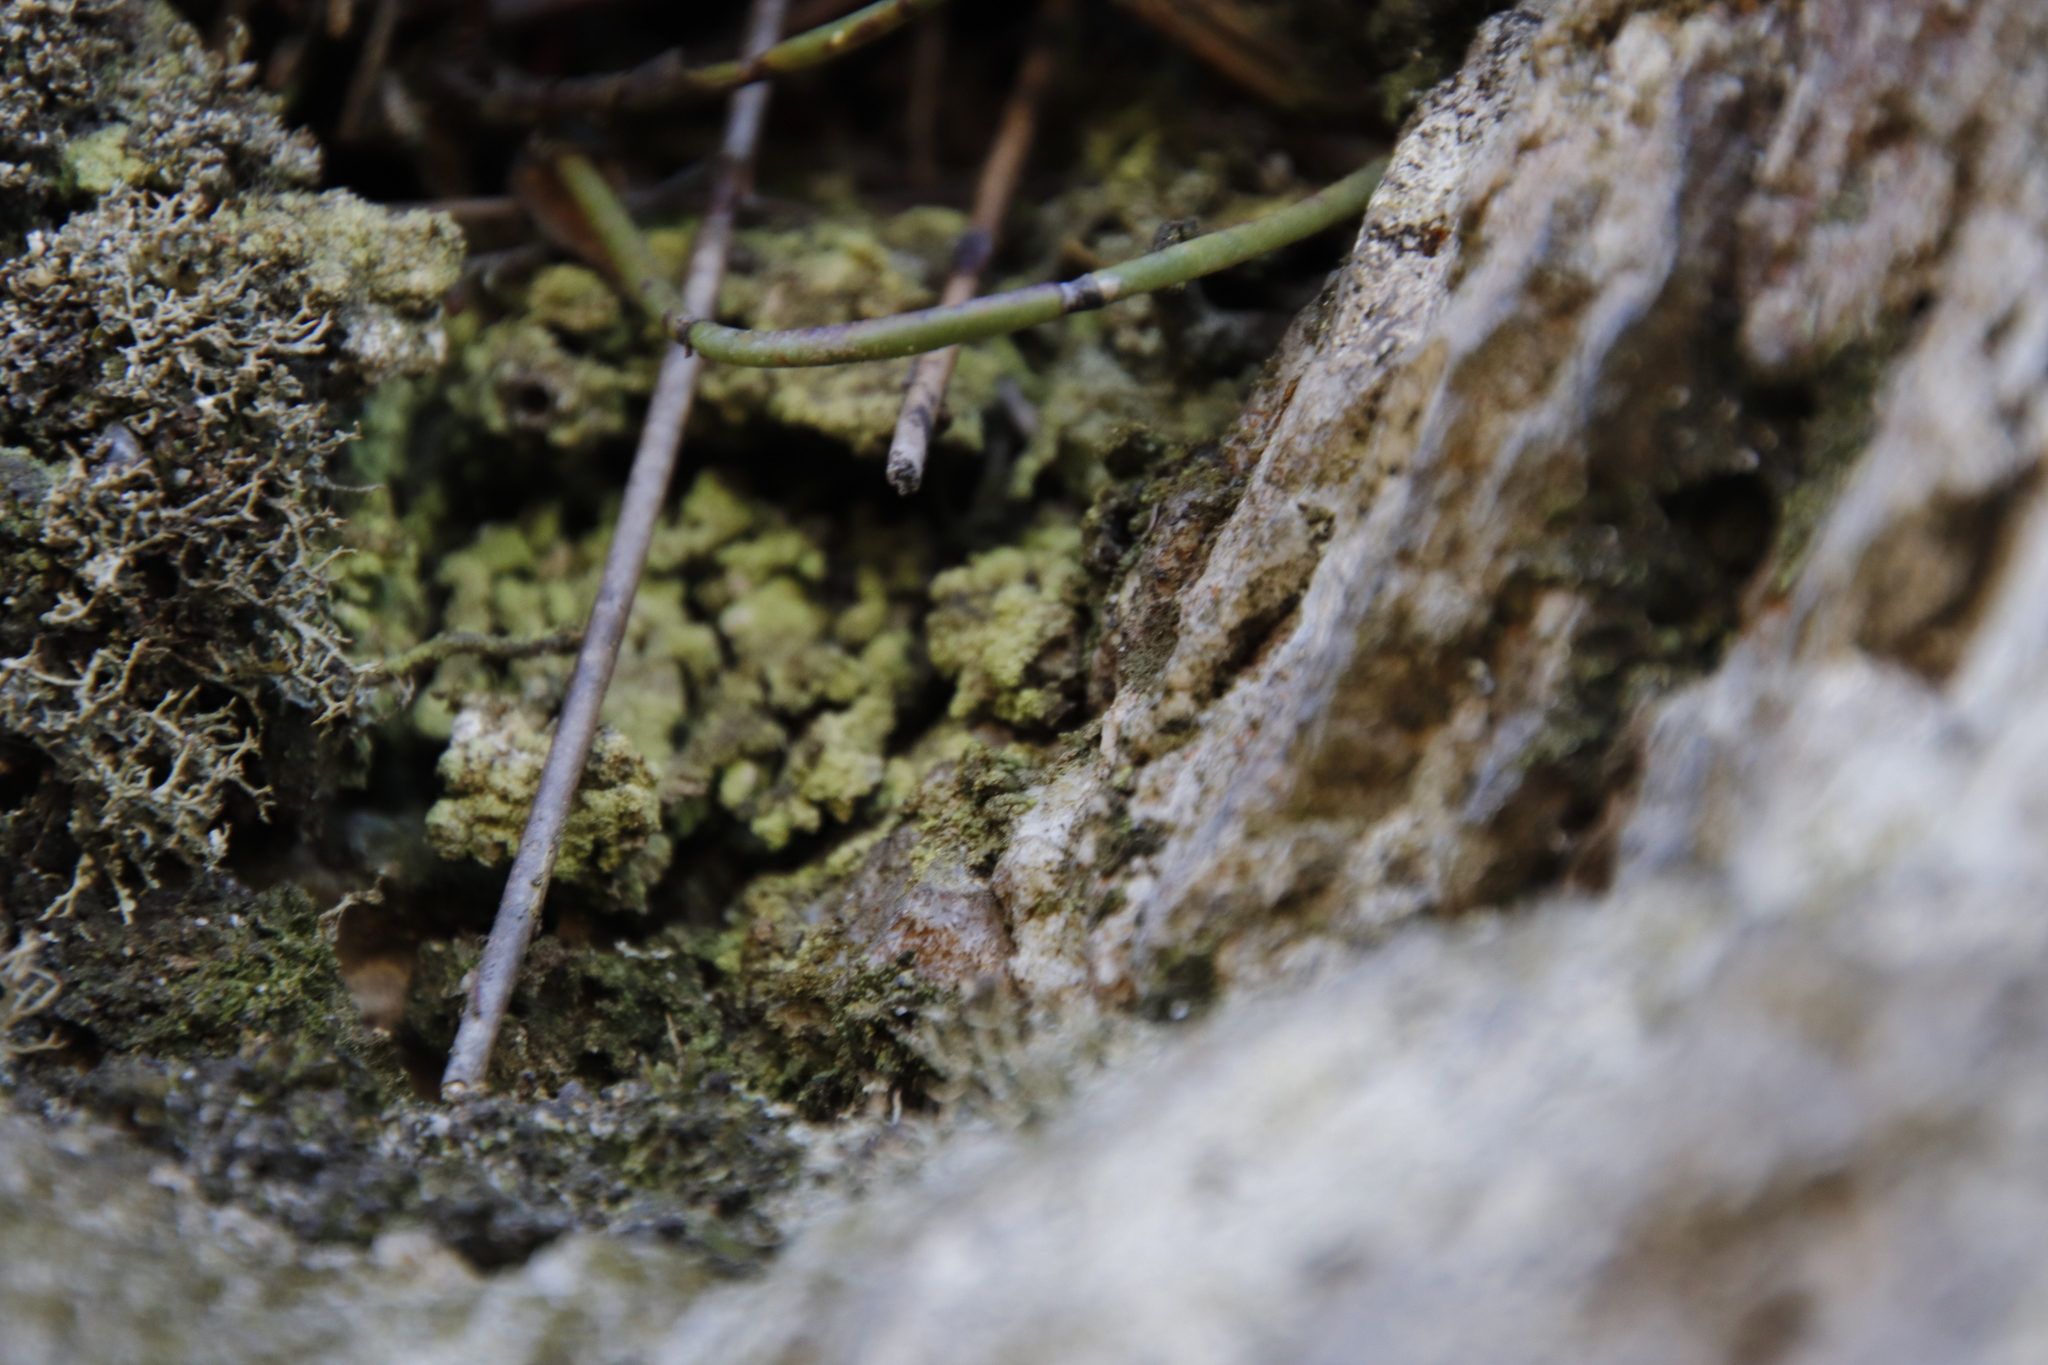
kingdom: Fungi
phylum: Ascomycota
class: Lecanoromycetes
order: Lecanorales
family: Cladoniaceae
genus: Cladonia
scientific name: Cladonia
